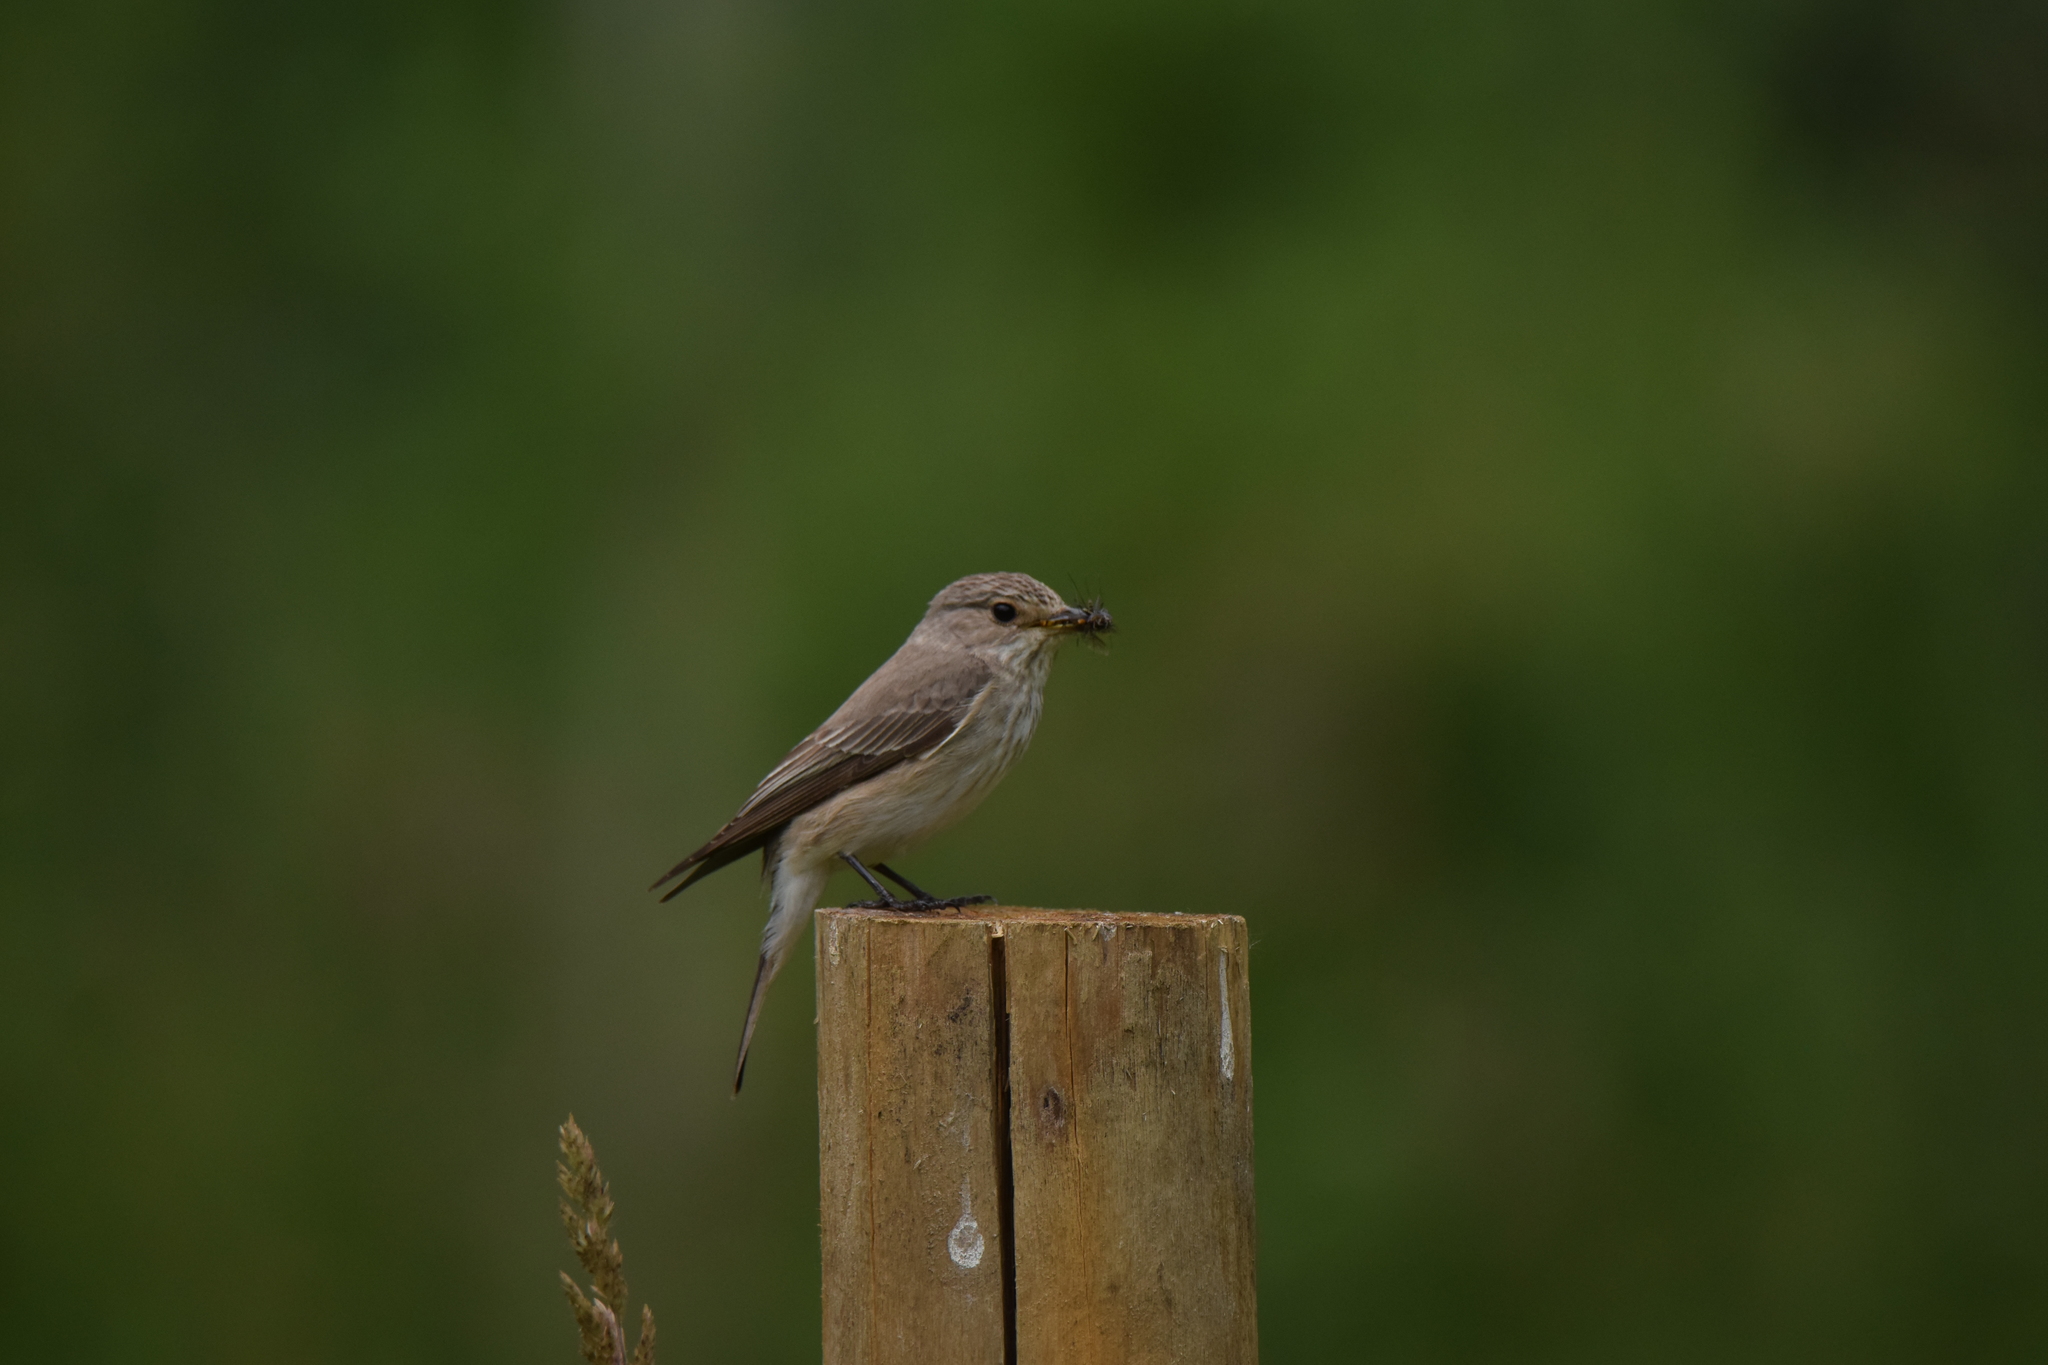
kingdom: Animalia
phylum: Chordata
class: Aves
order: Passeriformes
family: Muscicapidae
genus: Muscicapa
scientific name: Muscicapa striata
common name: Spotted flycatcher
